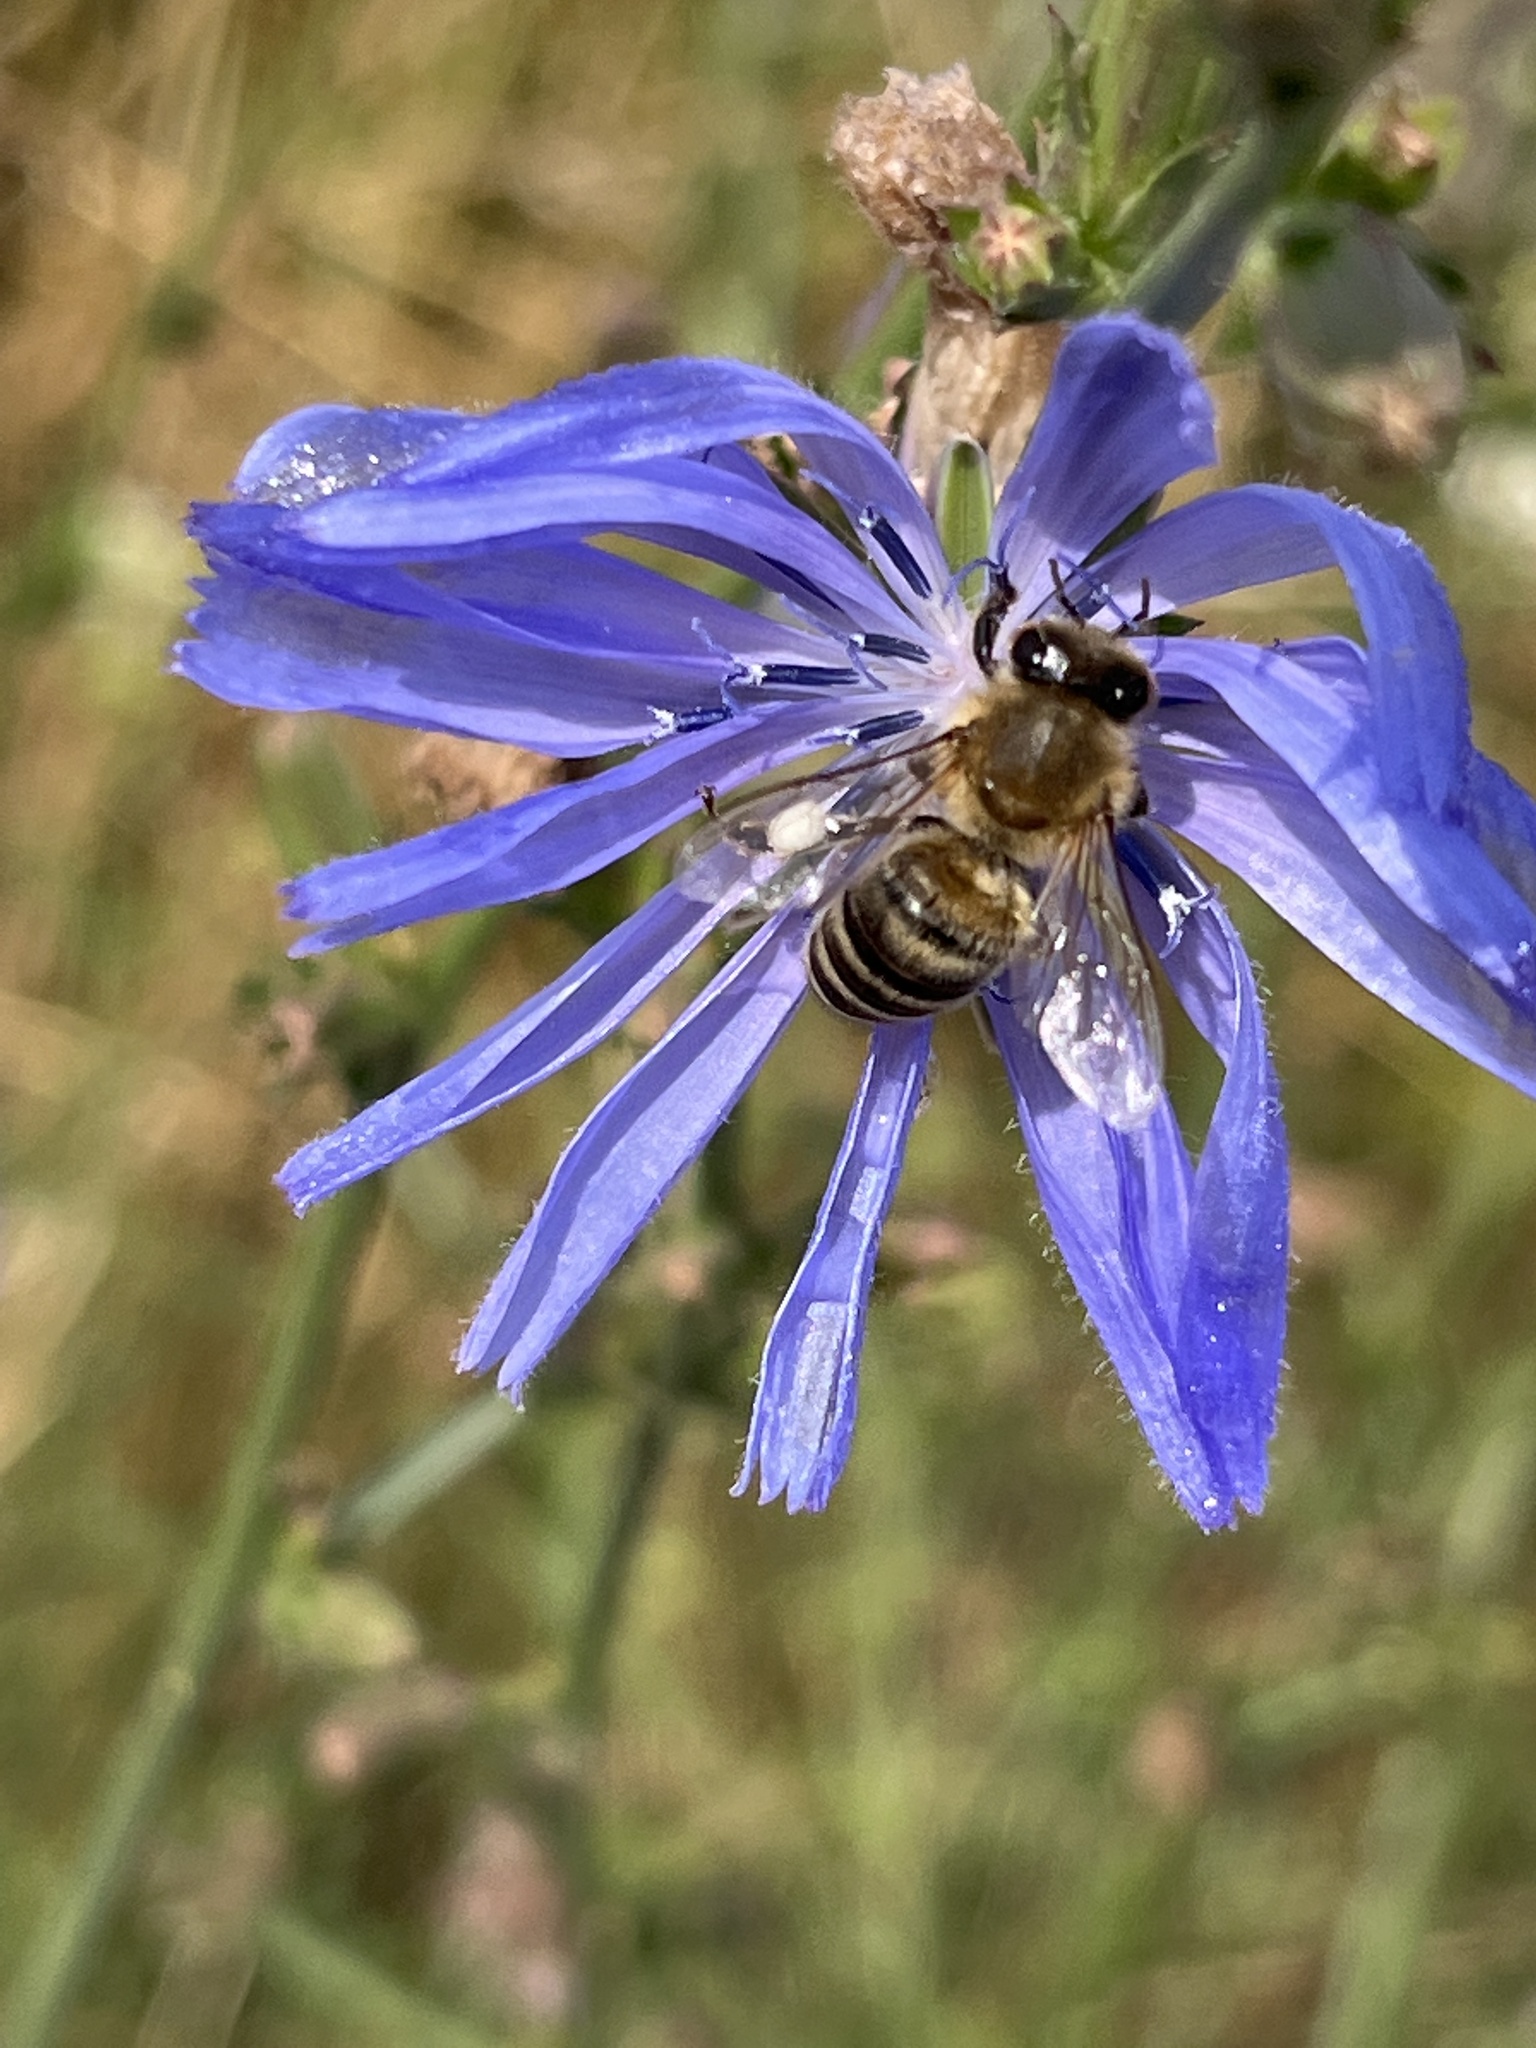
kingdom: Animalia
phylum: Arthropoda
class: Insecta
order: Hymenoptera
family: Apidae
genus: Apis
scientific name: Apis mellifera
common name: Honey bee
